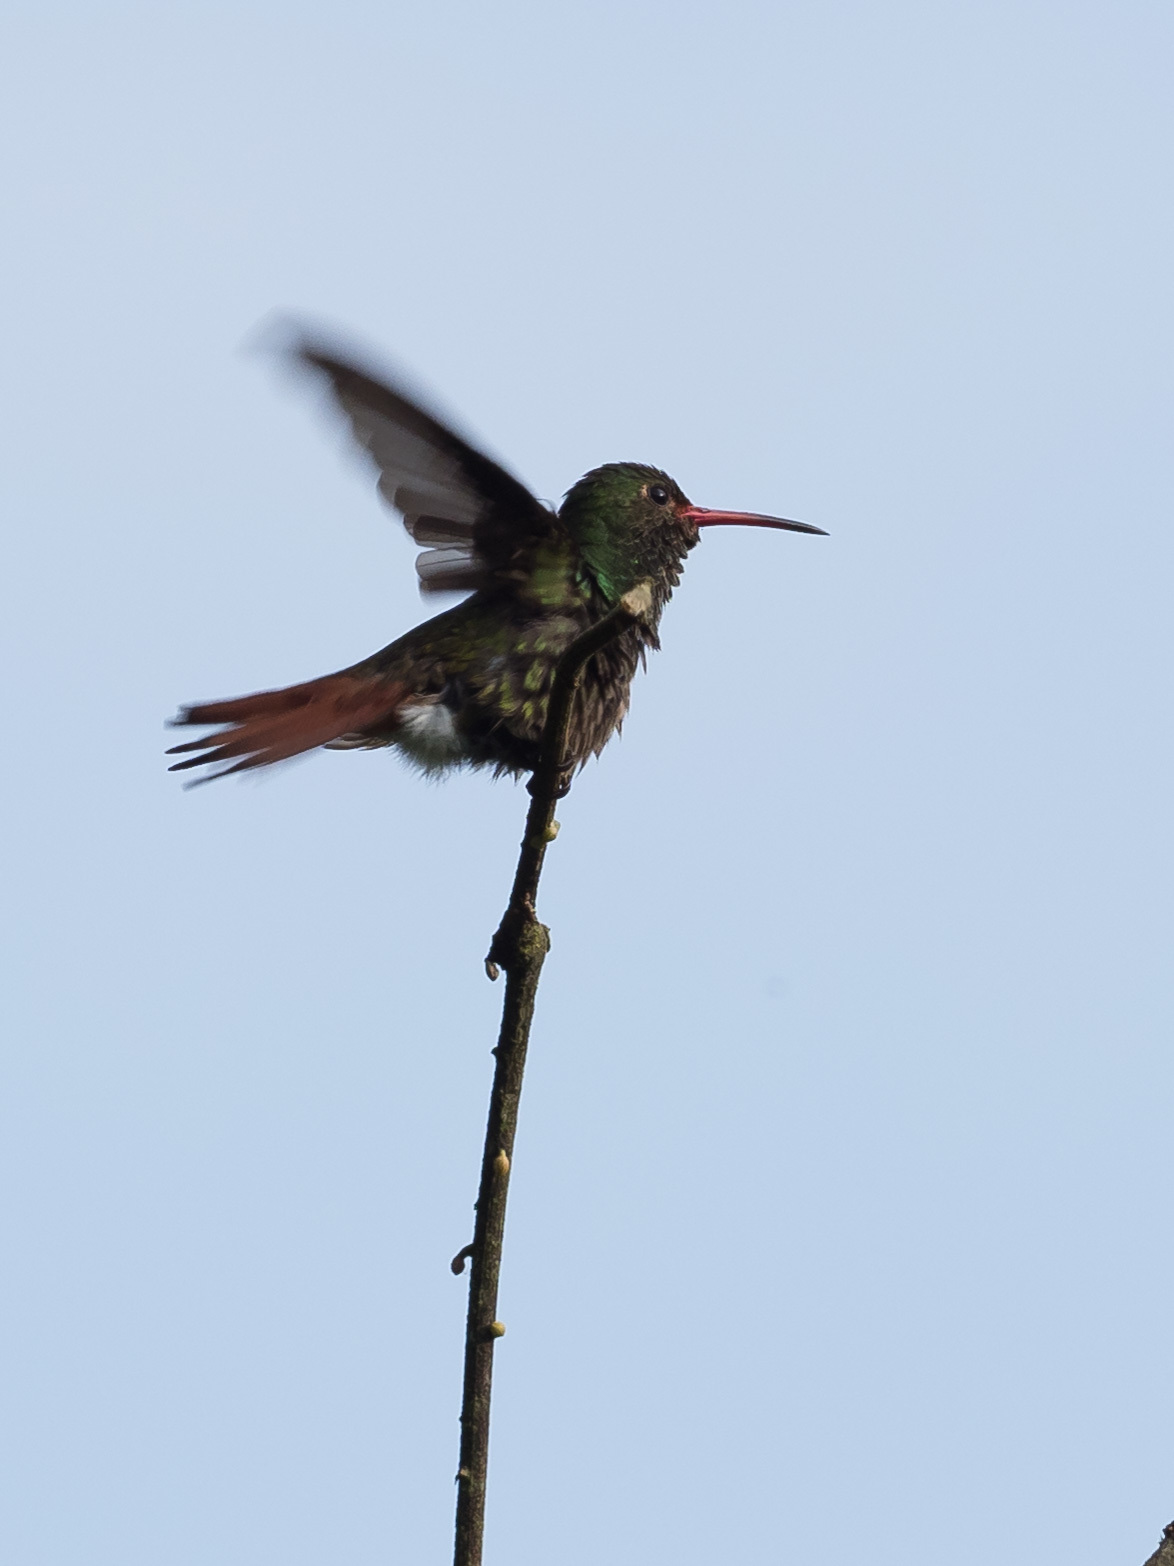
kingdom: Animalia
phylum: Chordata
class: Aves
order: Apodiformes
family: Trochilidae
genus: Amazilia
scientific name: Amazilia tzacatl
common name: Rufous-tailed hummingbird
